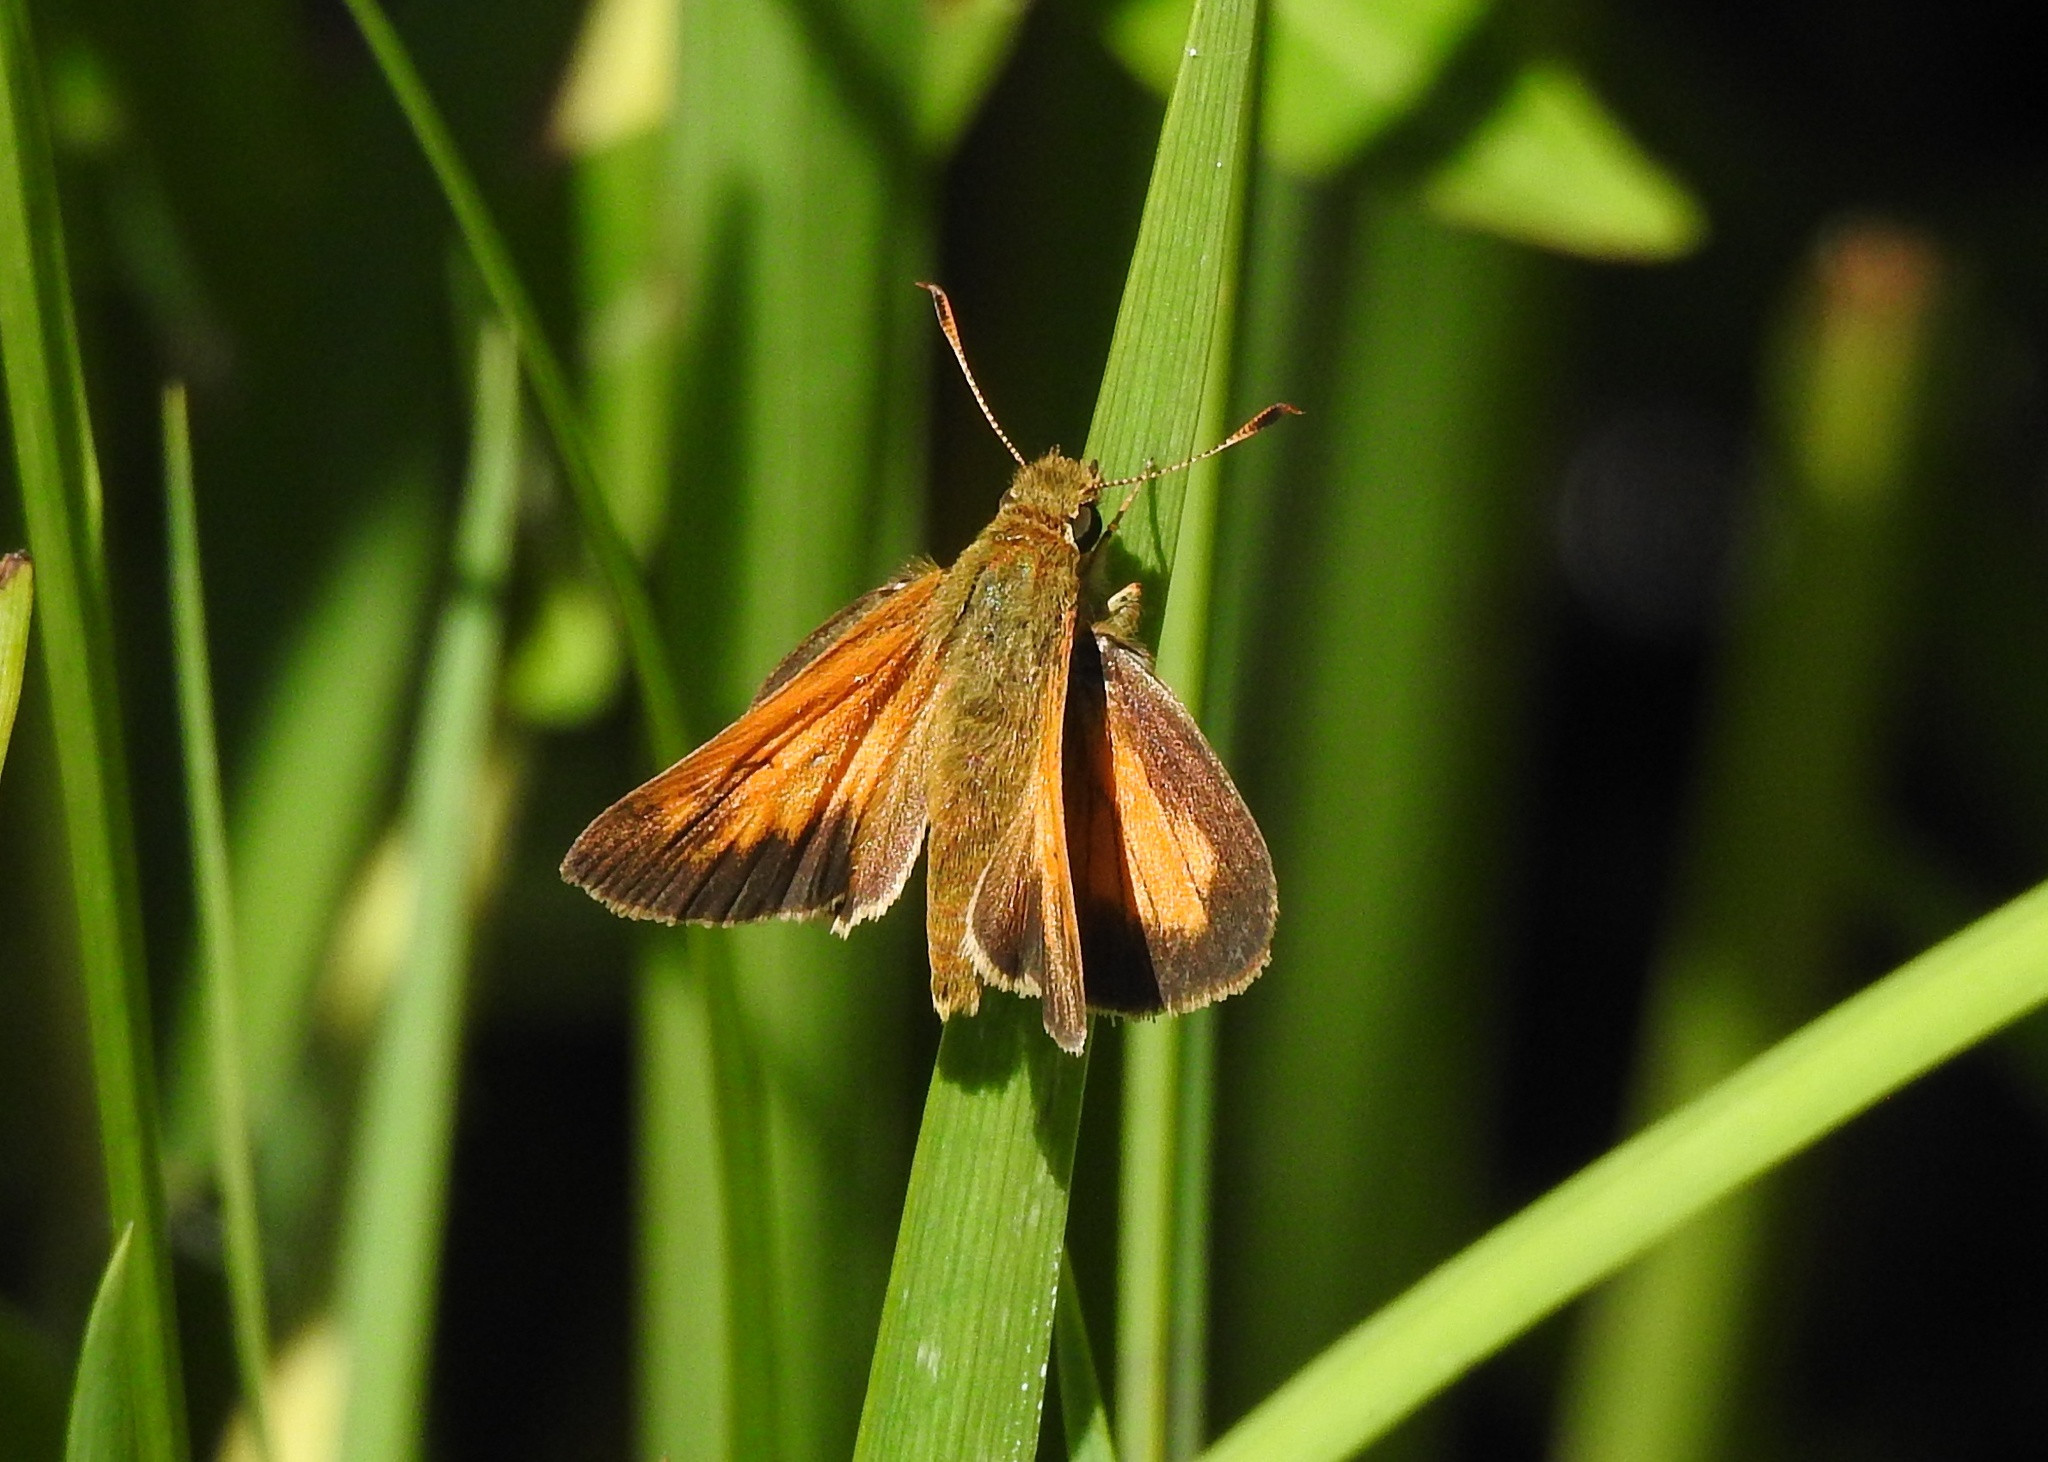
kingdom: Animalia
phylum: Arthropoda
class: Insecta
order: Lepidoptera
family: Hesperiidae
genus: Poanes
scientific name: Poanes aaroni
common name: Aaron's skipper
